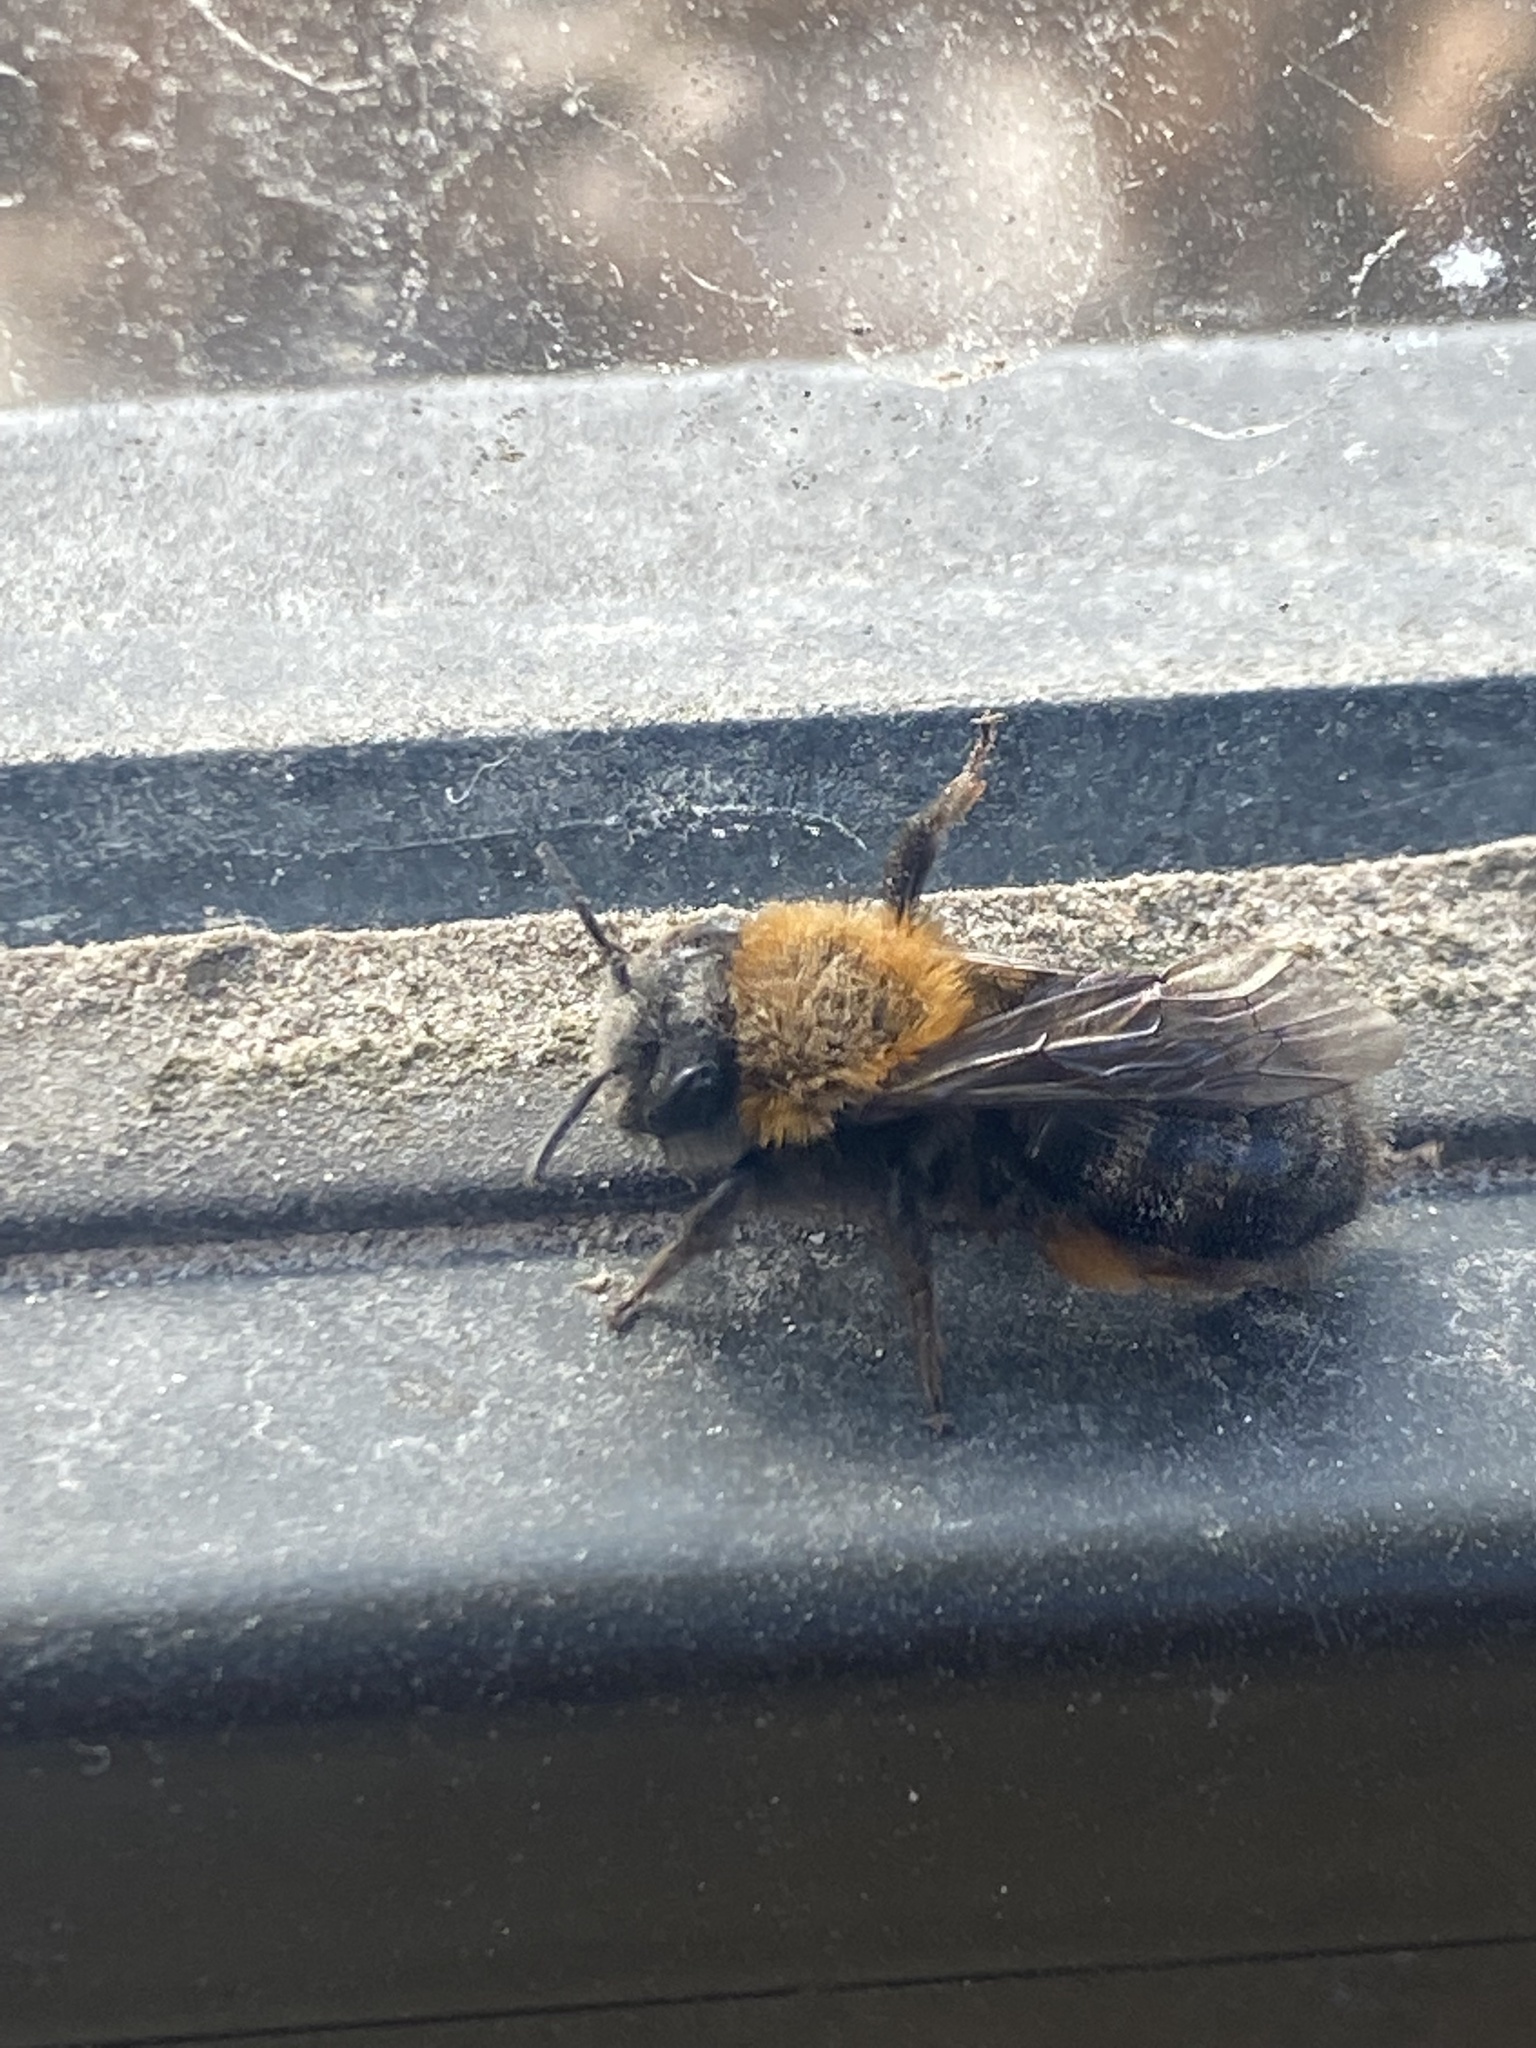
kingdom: Animalia
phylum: Arthropoda
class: Insecta
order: Hymenoptera
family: Andrenidae
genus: Andrena
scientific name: Andrena clarkella
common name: Clarke's mining bee
